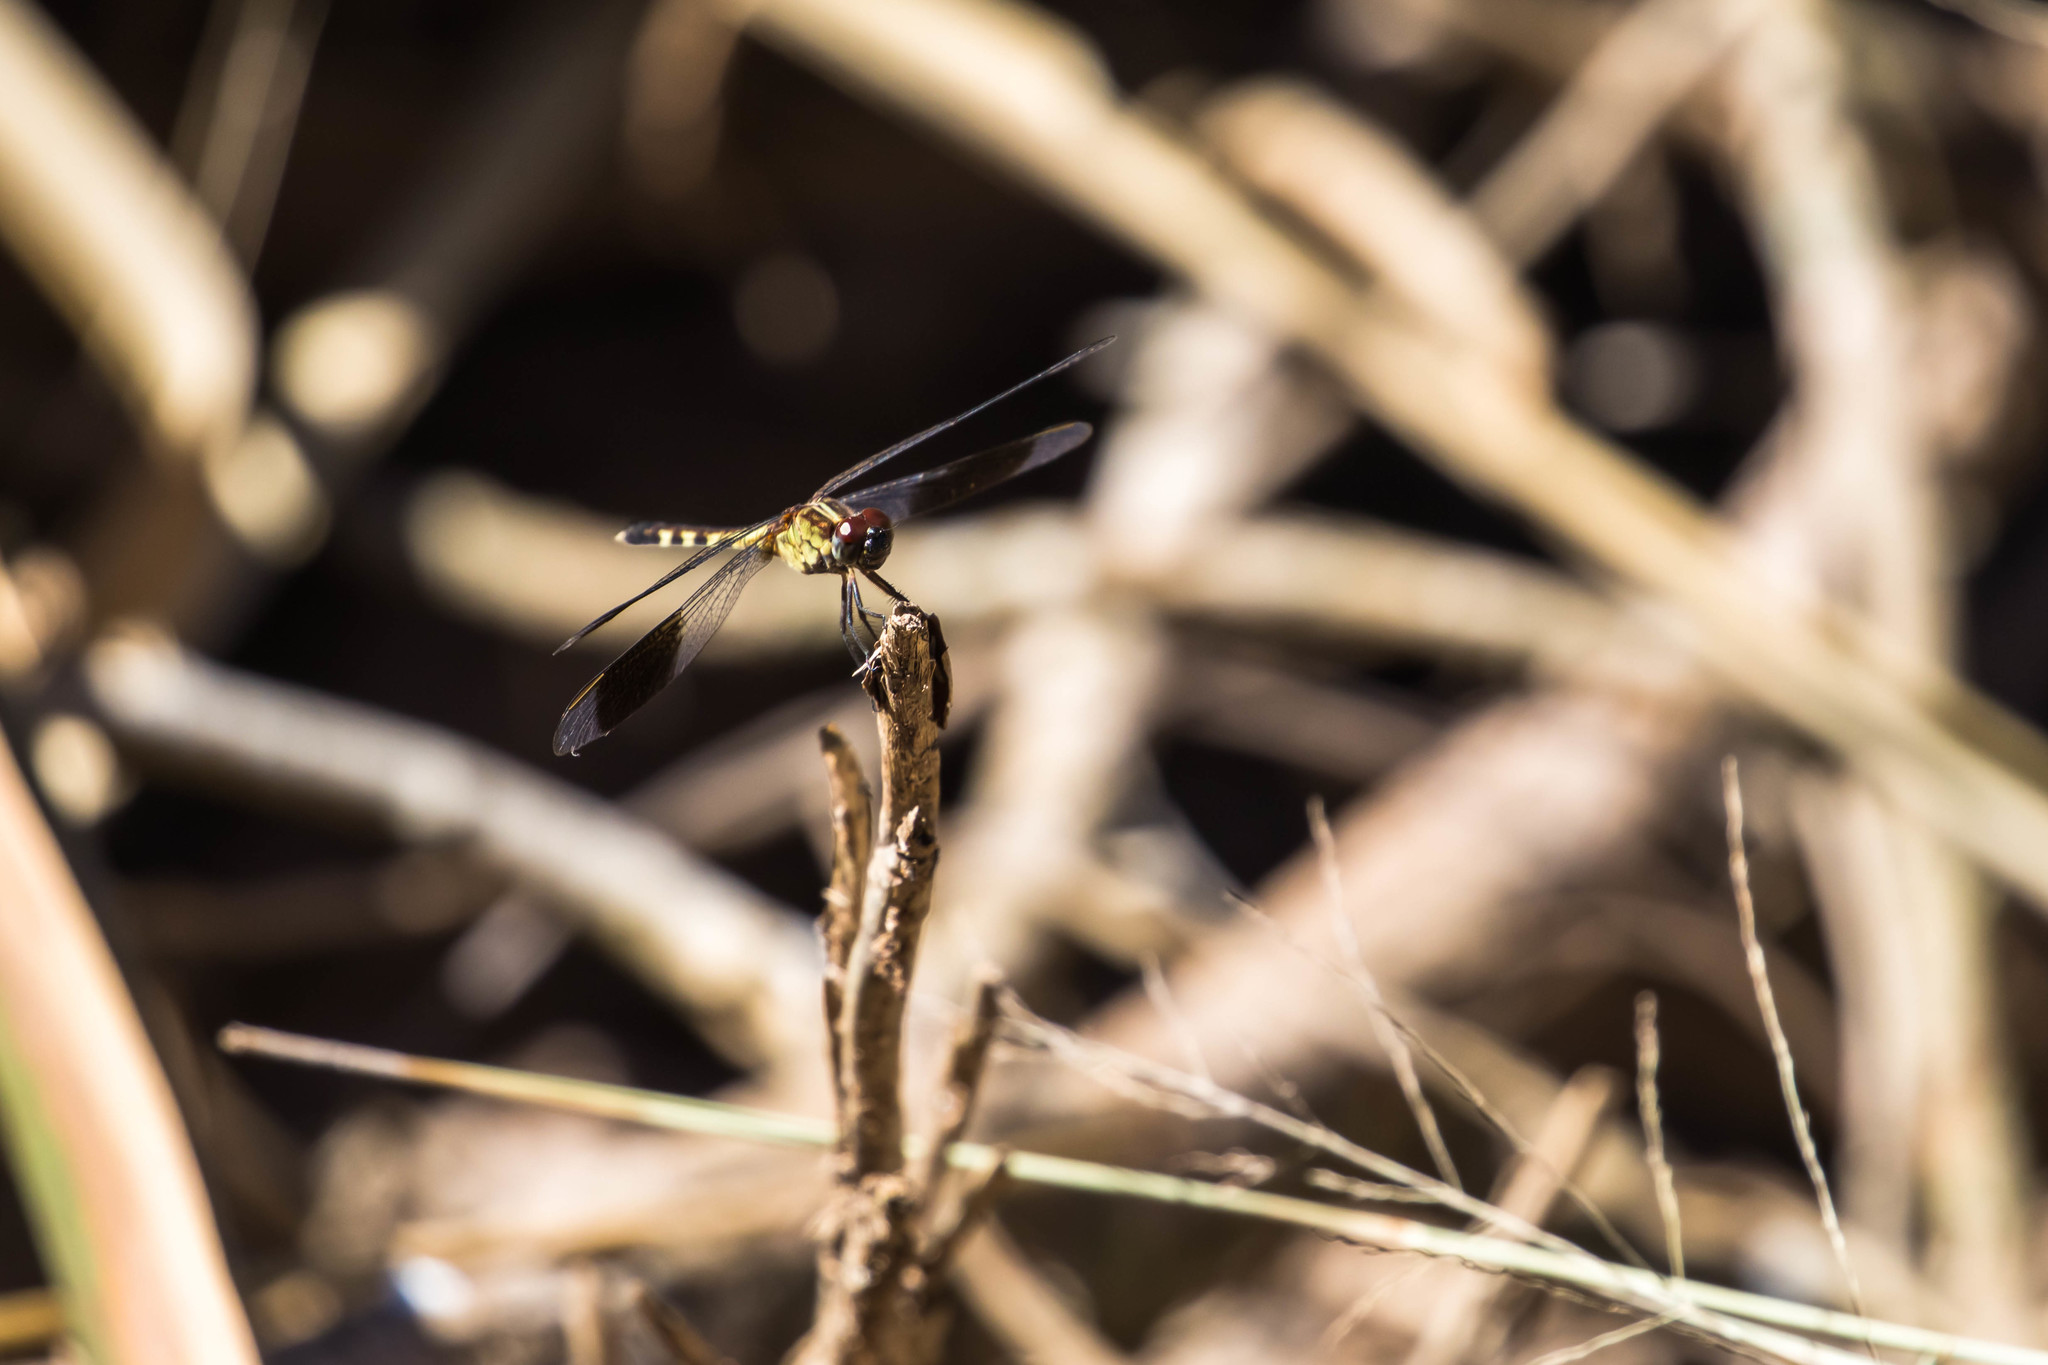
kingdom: Animalia
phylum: Arthropoda
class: Insecta
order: Odonata
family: Libellulidae
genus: Erythrodiplax
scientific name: Erythrodiplax umbrata
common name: Band-winged dragonlet
